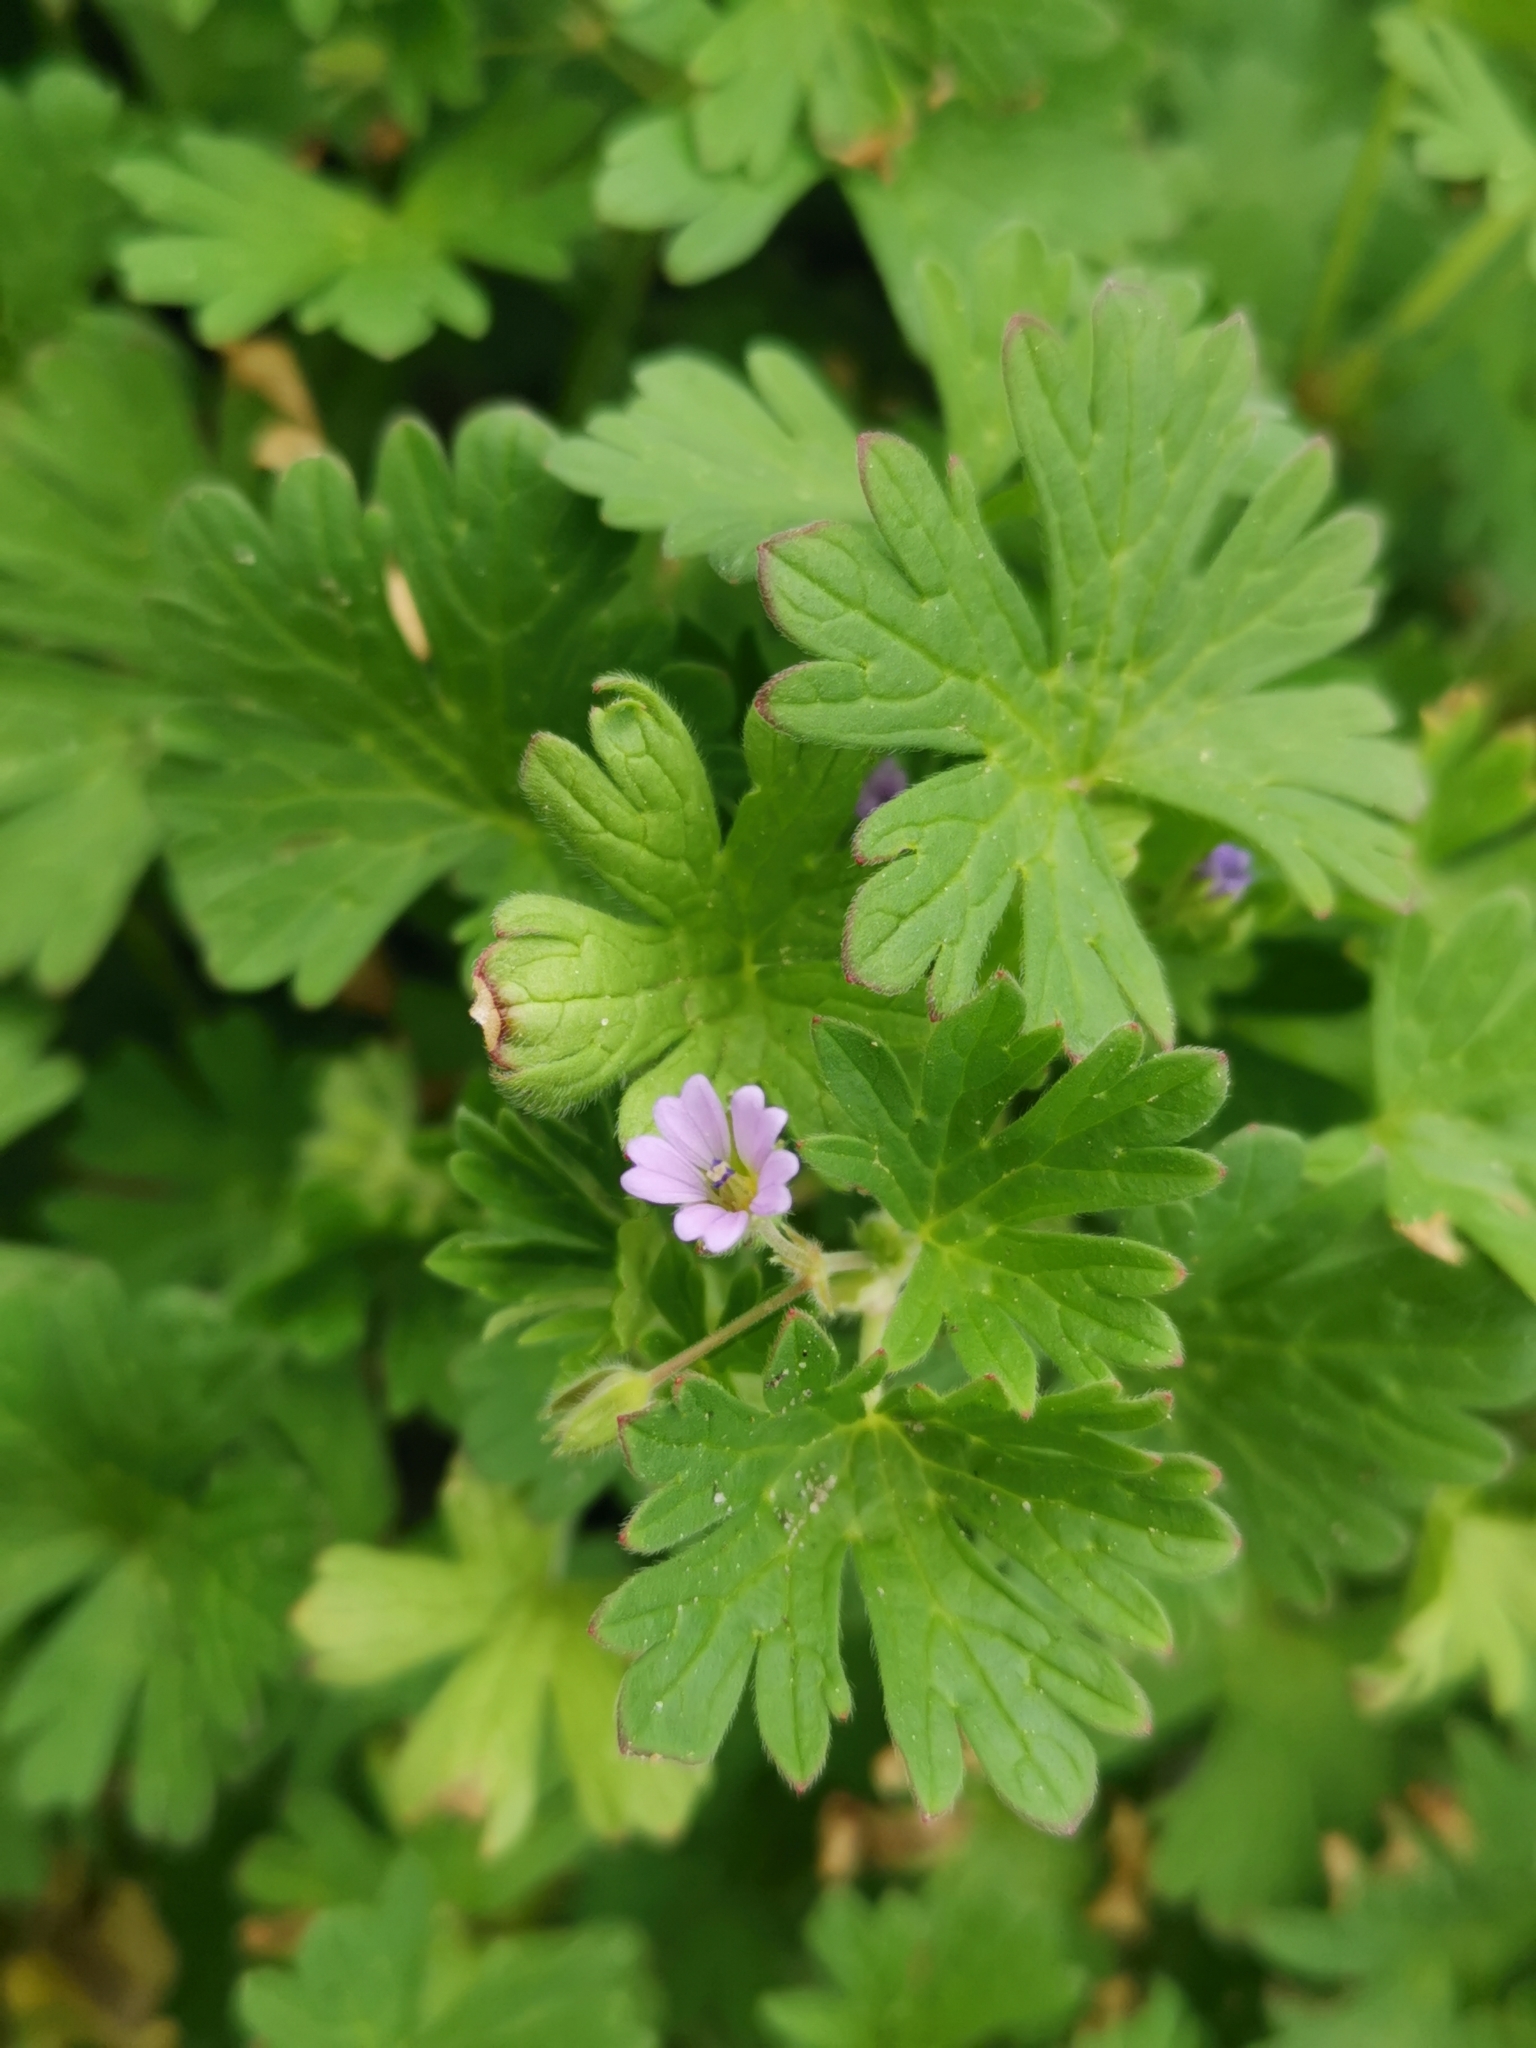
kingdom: Plantae
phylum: Tracheophyta
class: Magnoliopsida
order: Geraniales
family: Geraniaceae
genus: Geranium
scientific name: Geranium pusillum
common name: Small geranium
